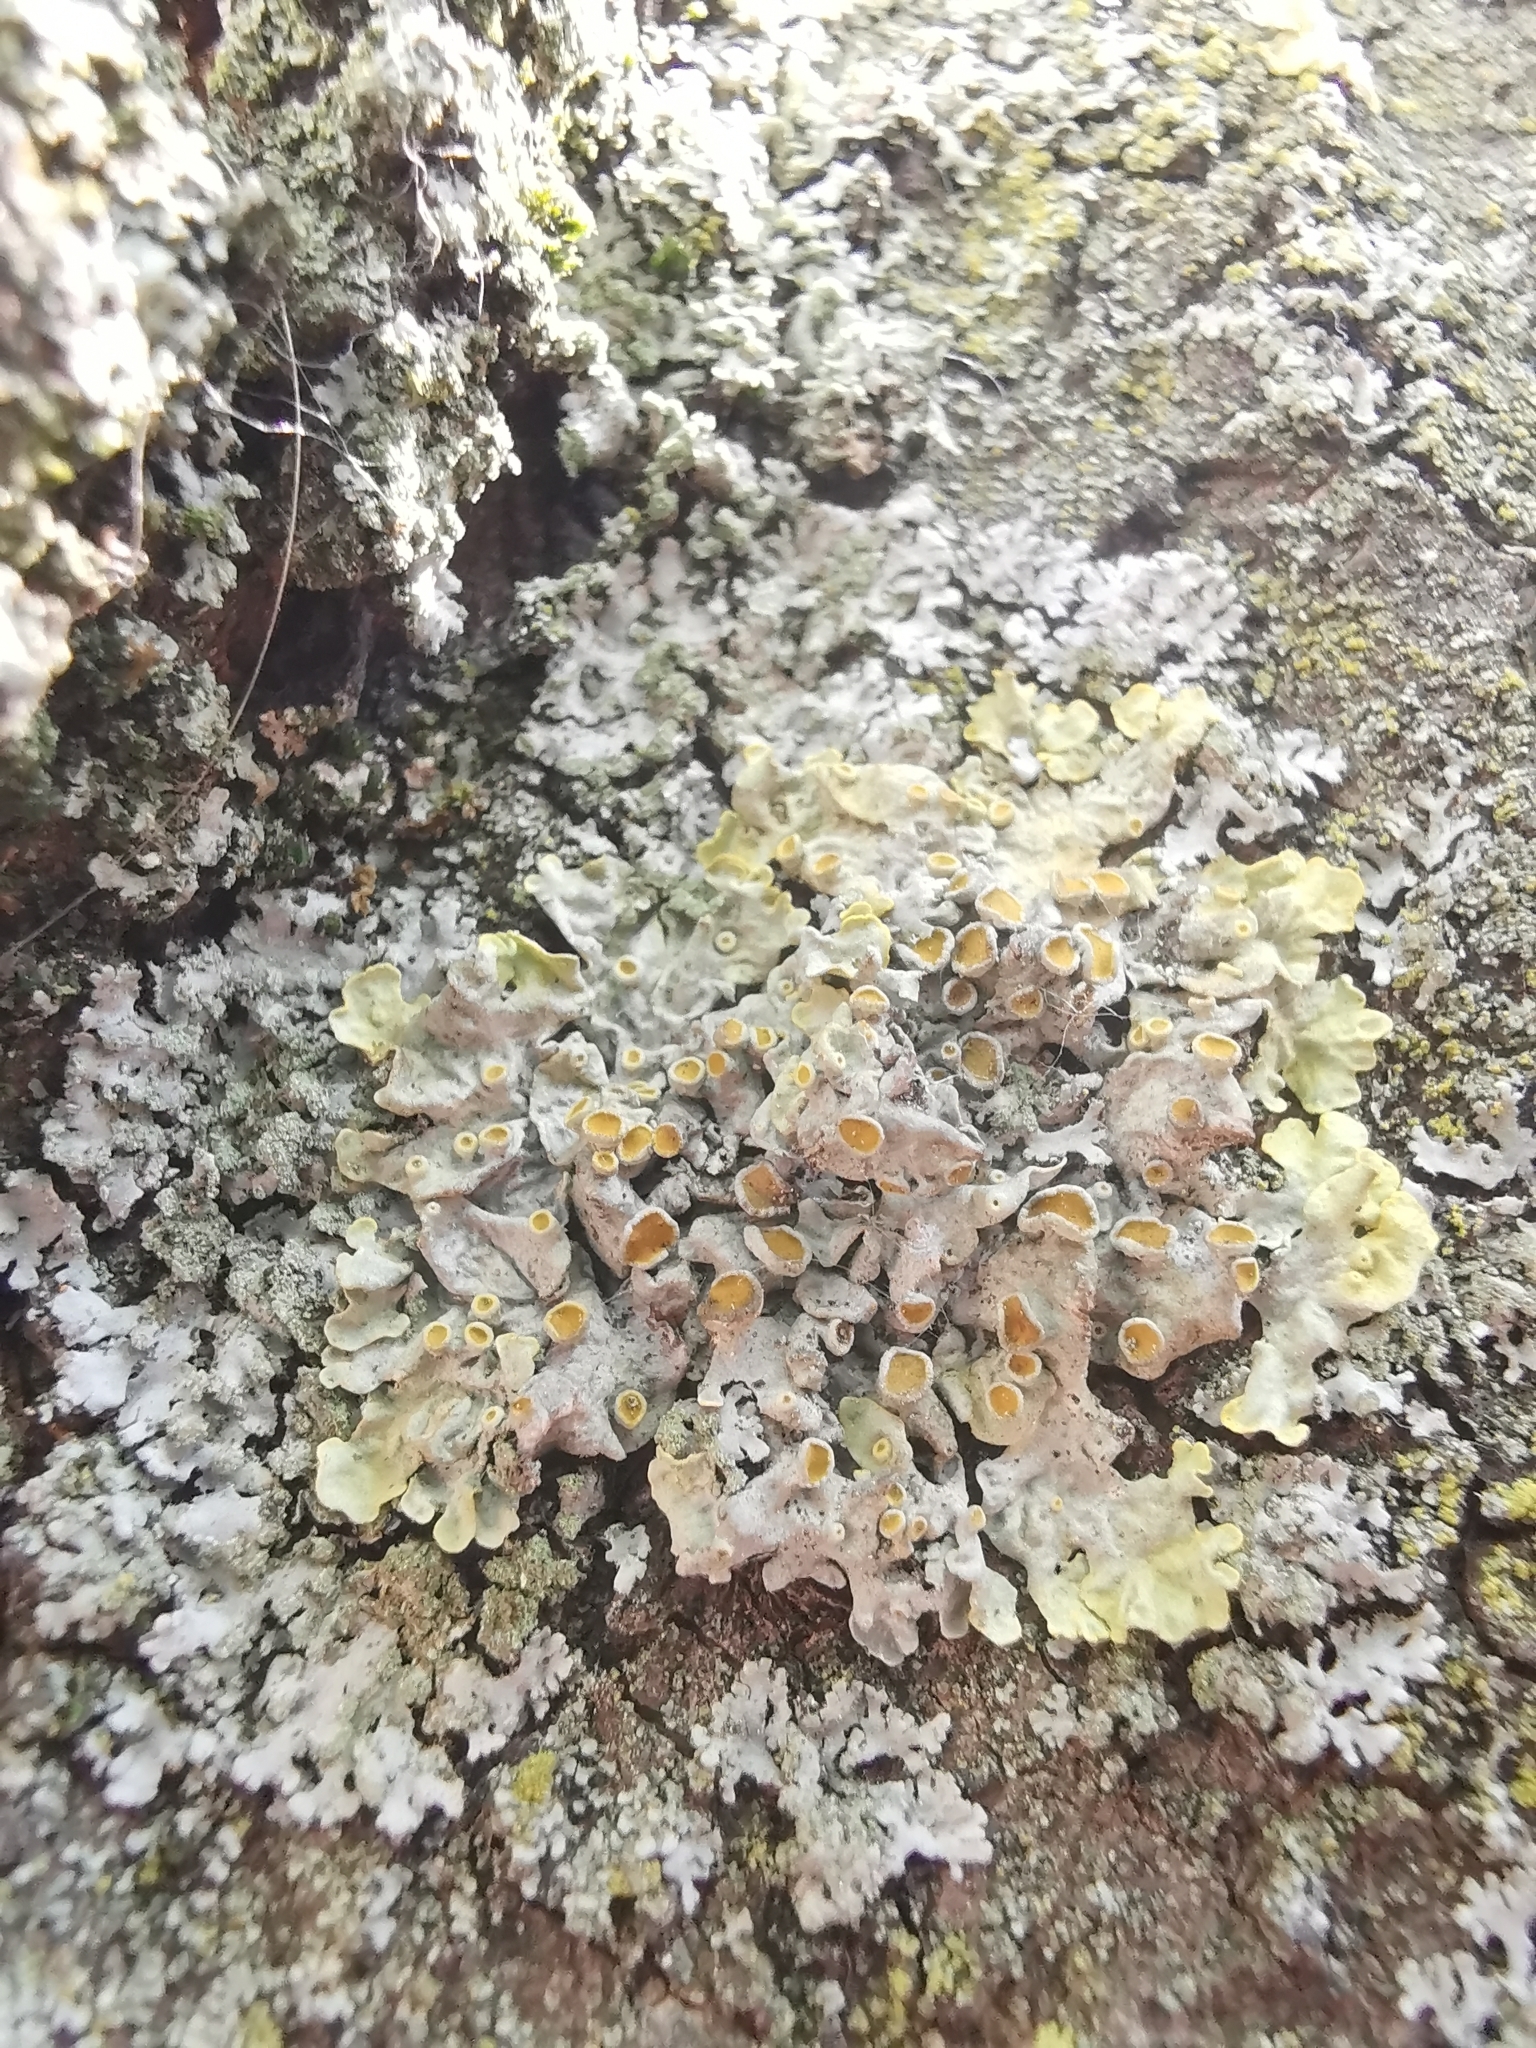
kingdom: Fungi
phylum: Ascomycota
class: Lecanoromycetes
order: Teloschistales
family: Teloschistaceae
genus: Xanthoria
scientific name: Xanthoria parietina
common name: Common orange lichen
